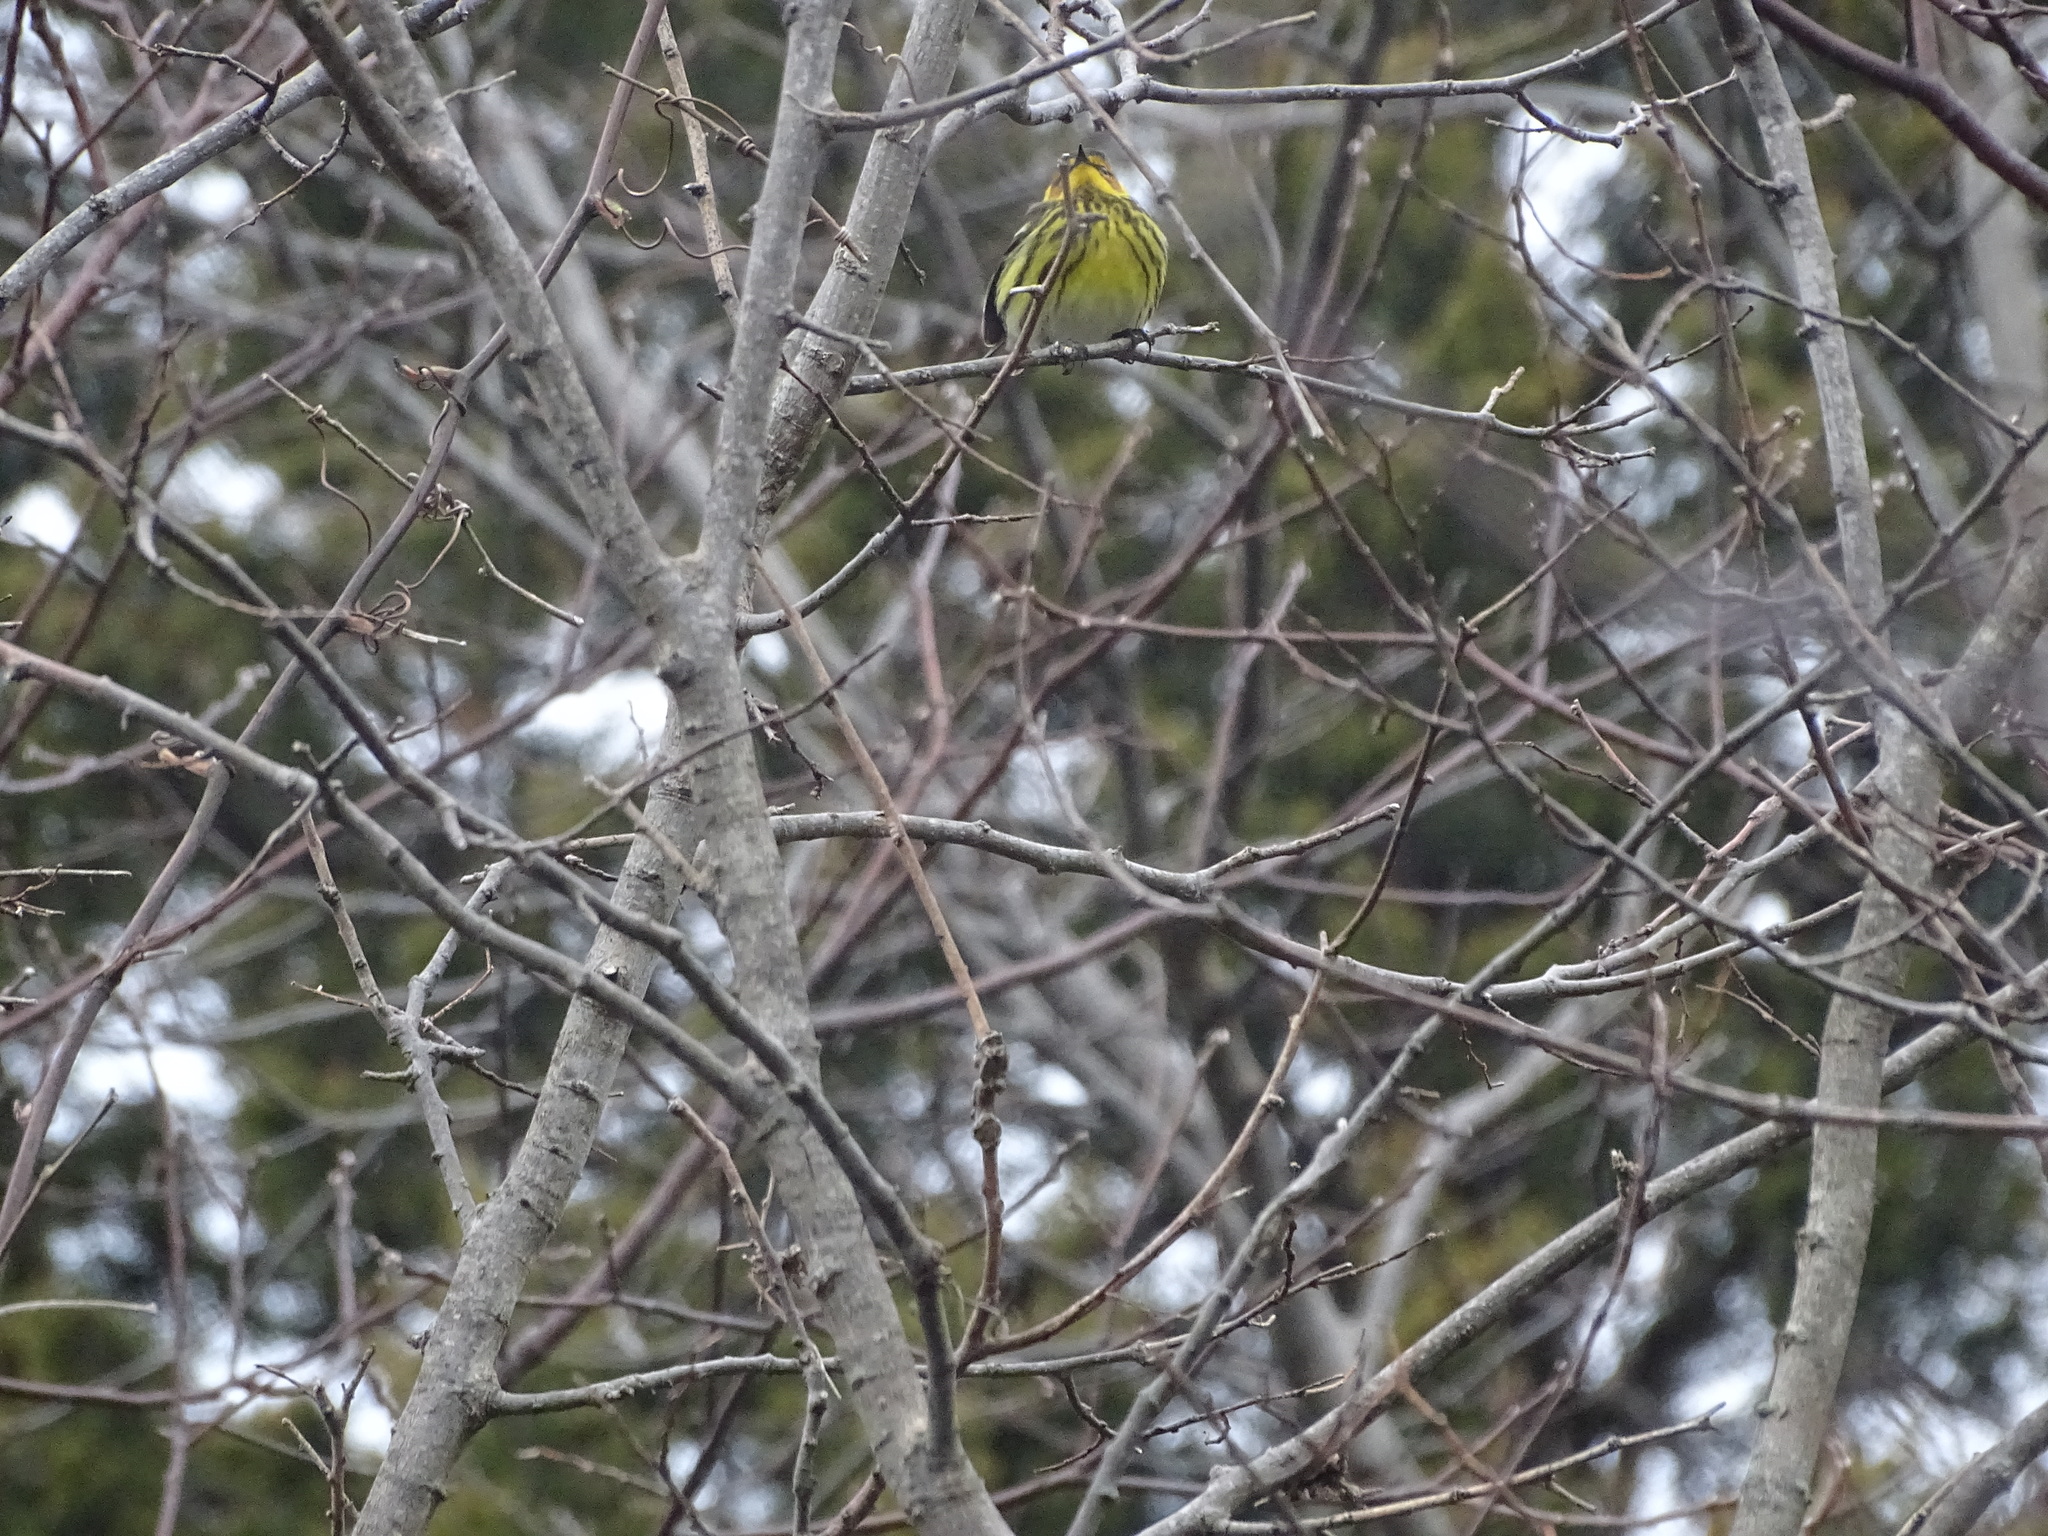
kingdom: Animalia
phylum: Chordata
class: Aves
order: Passeriformes
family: Parulidae
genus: Setophaga
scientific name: Setophaga tigrina
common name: Cape may warbler
